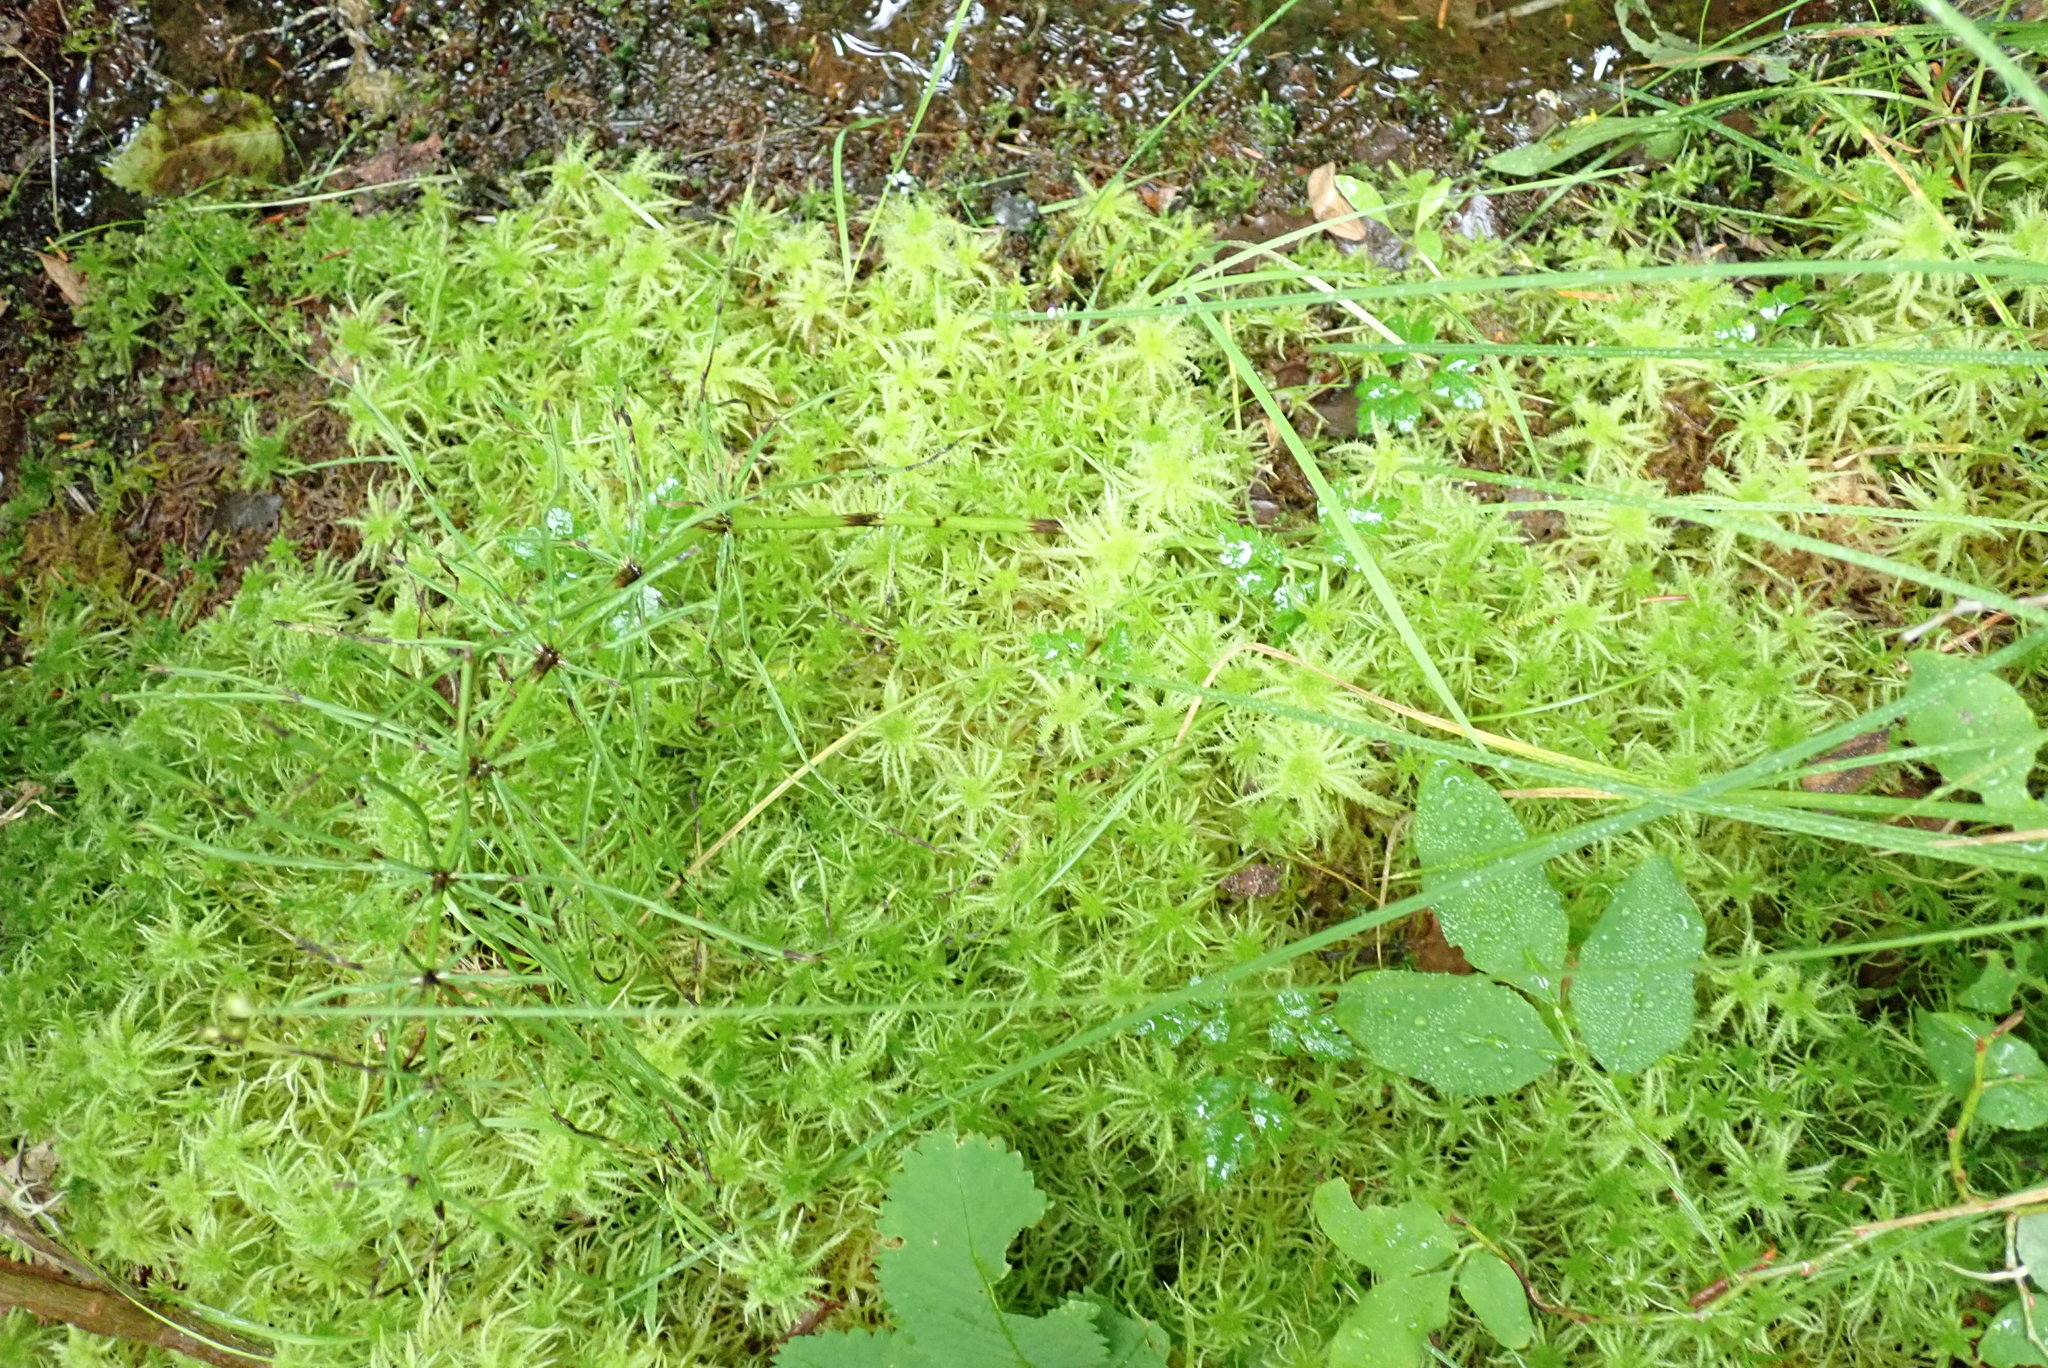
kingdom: Plantae
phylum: Bryophyta
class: Sphagnopsida
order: Sphagnales
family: Sphagnaceae
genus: Sphagnum
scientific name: Sphagnum squarrosum
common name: Shaggy peat moss
